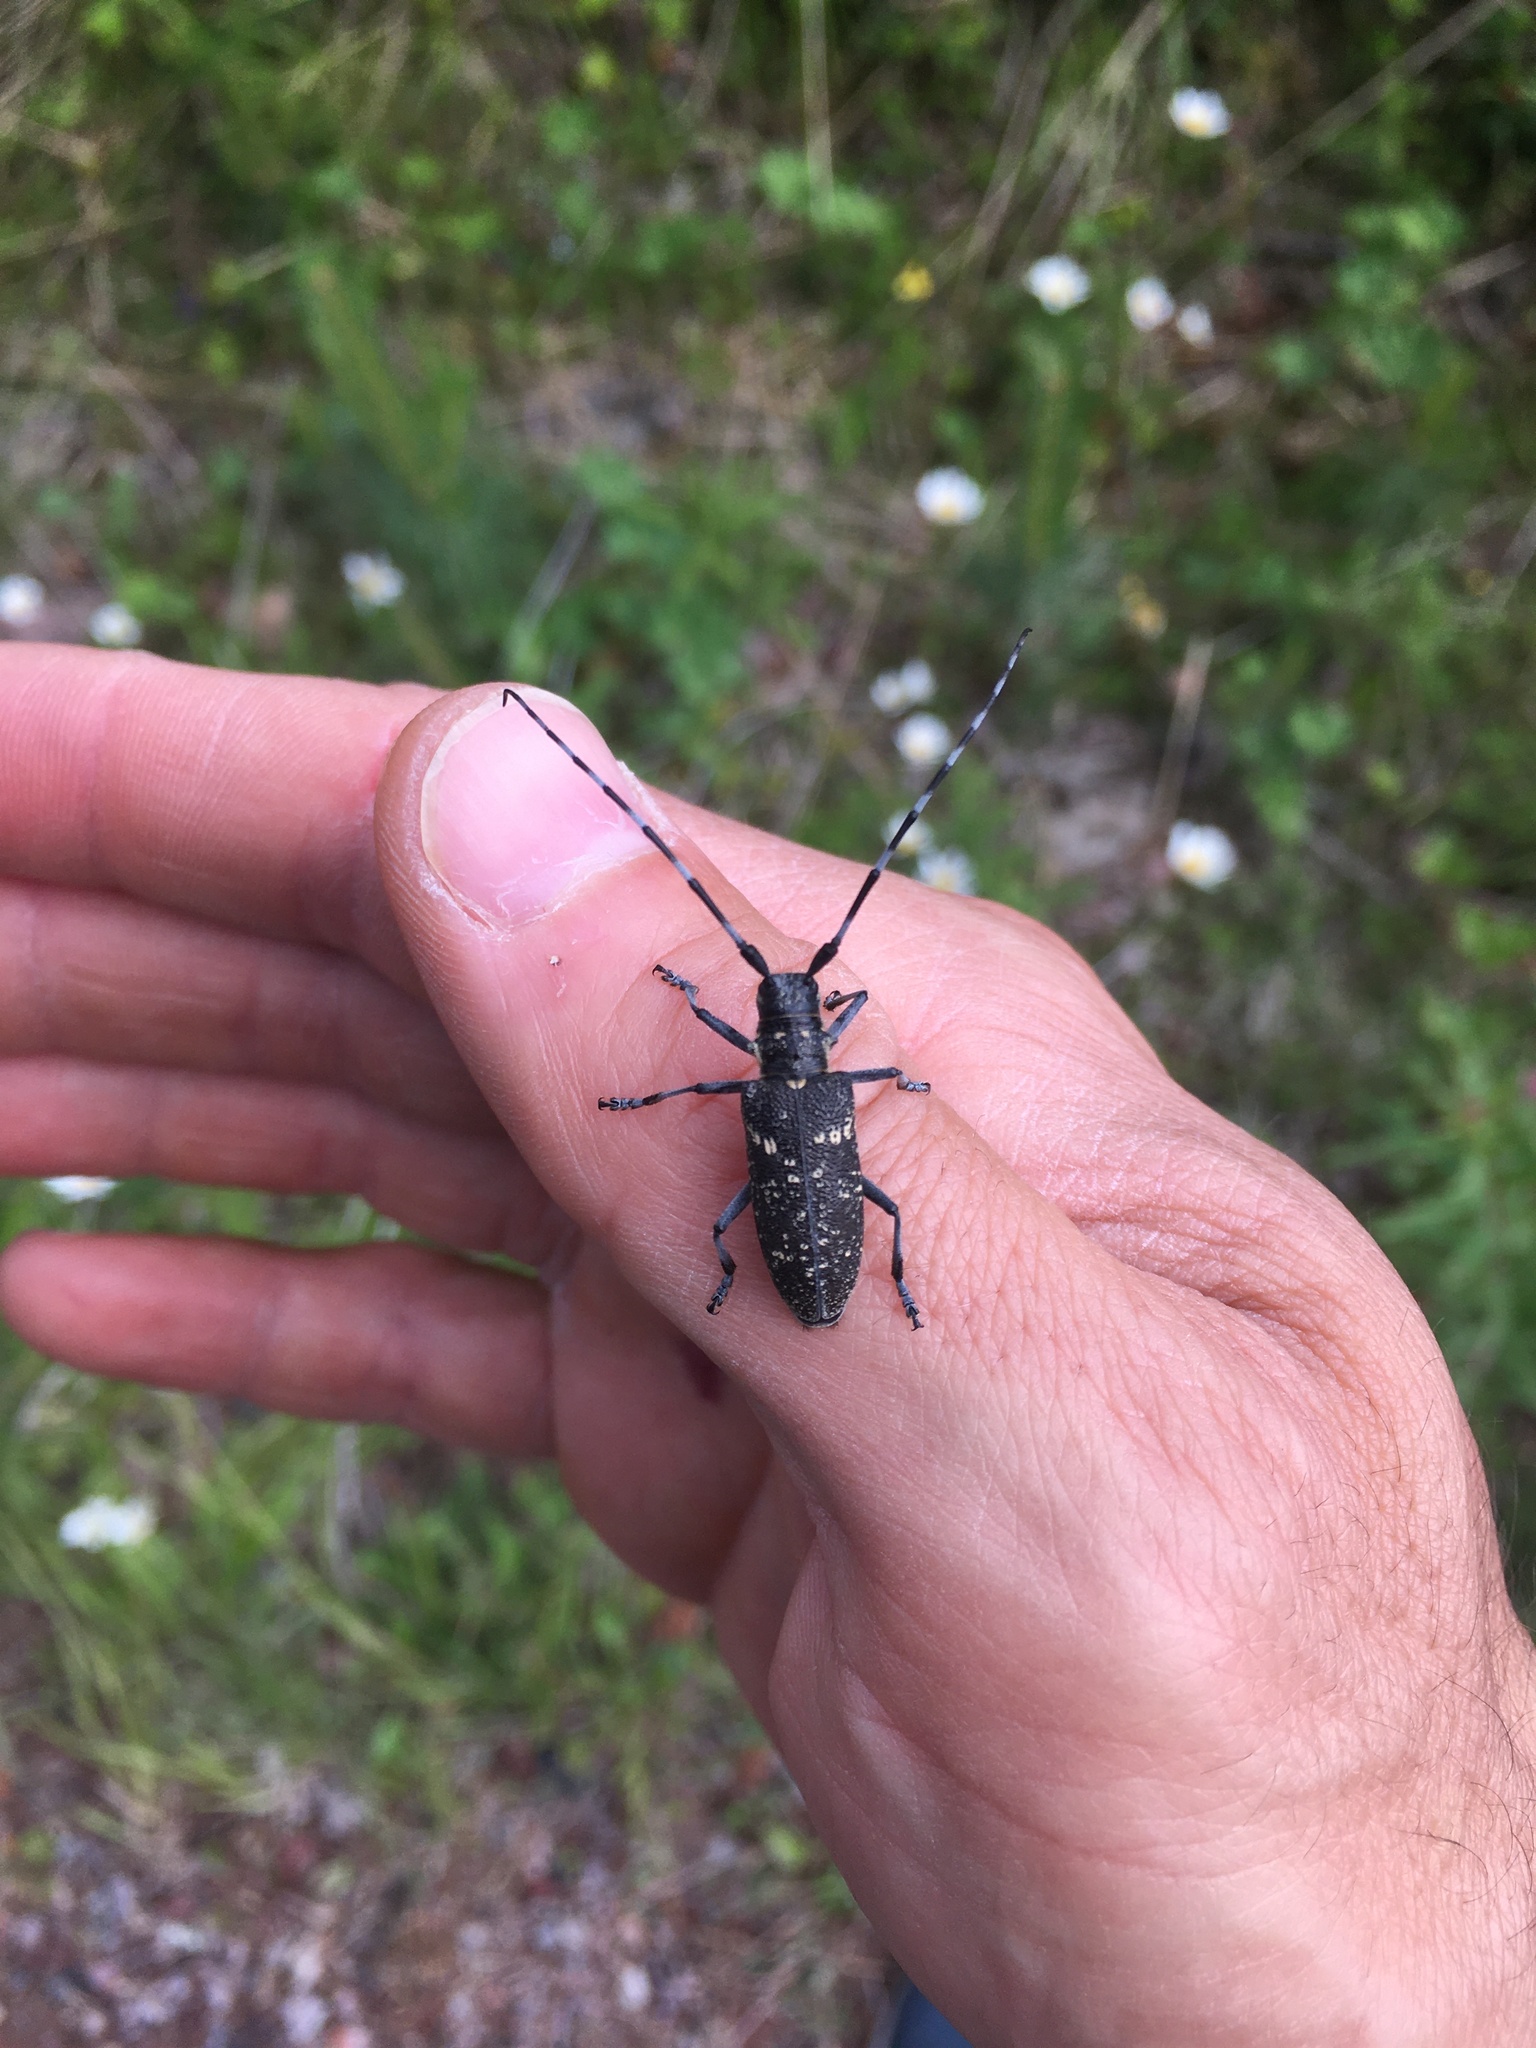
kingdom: Animalia
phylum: Arthropoda
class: Insecta
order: Coleoptera
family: Cerambycidae
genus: Monochamus
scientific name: Monochamus sutor
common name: Pine sawyer
